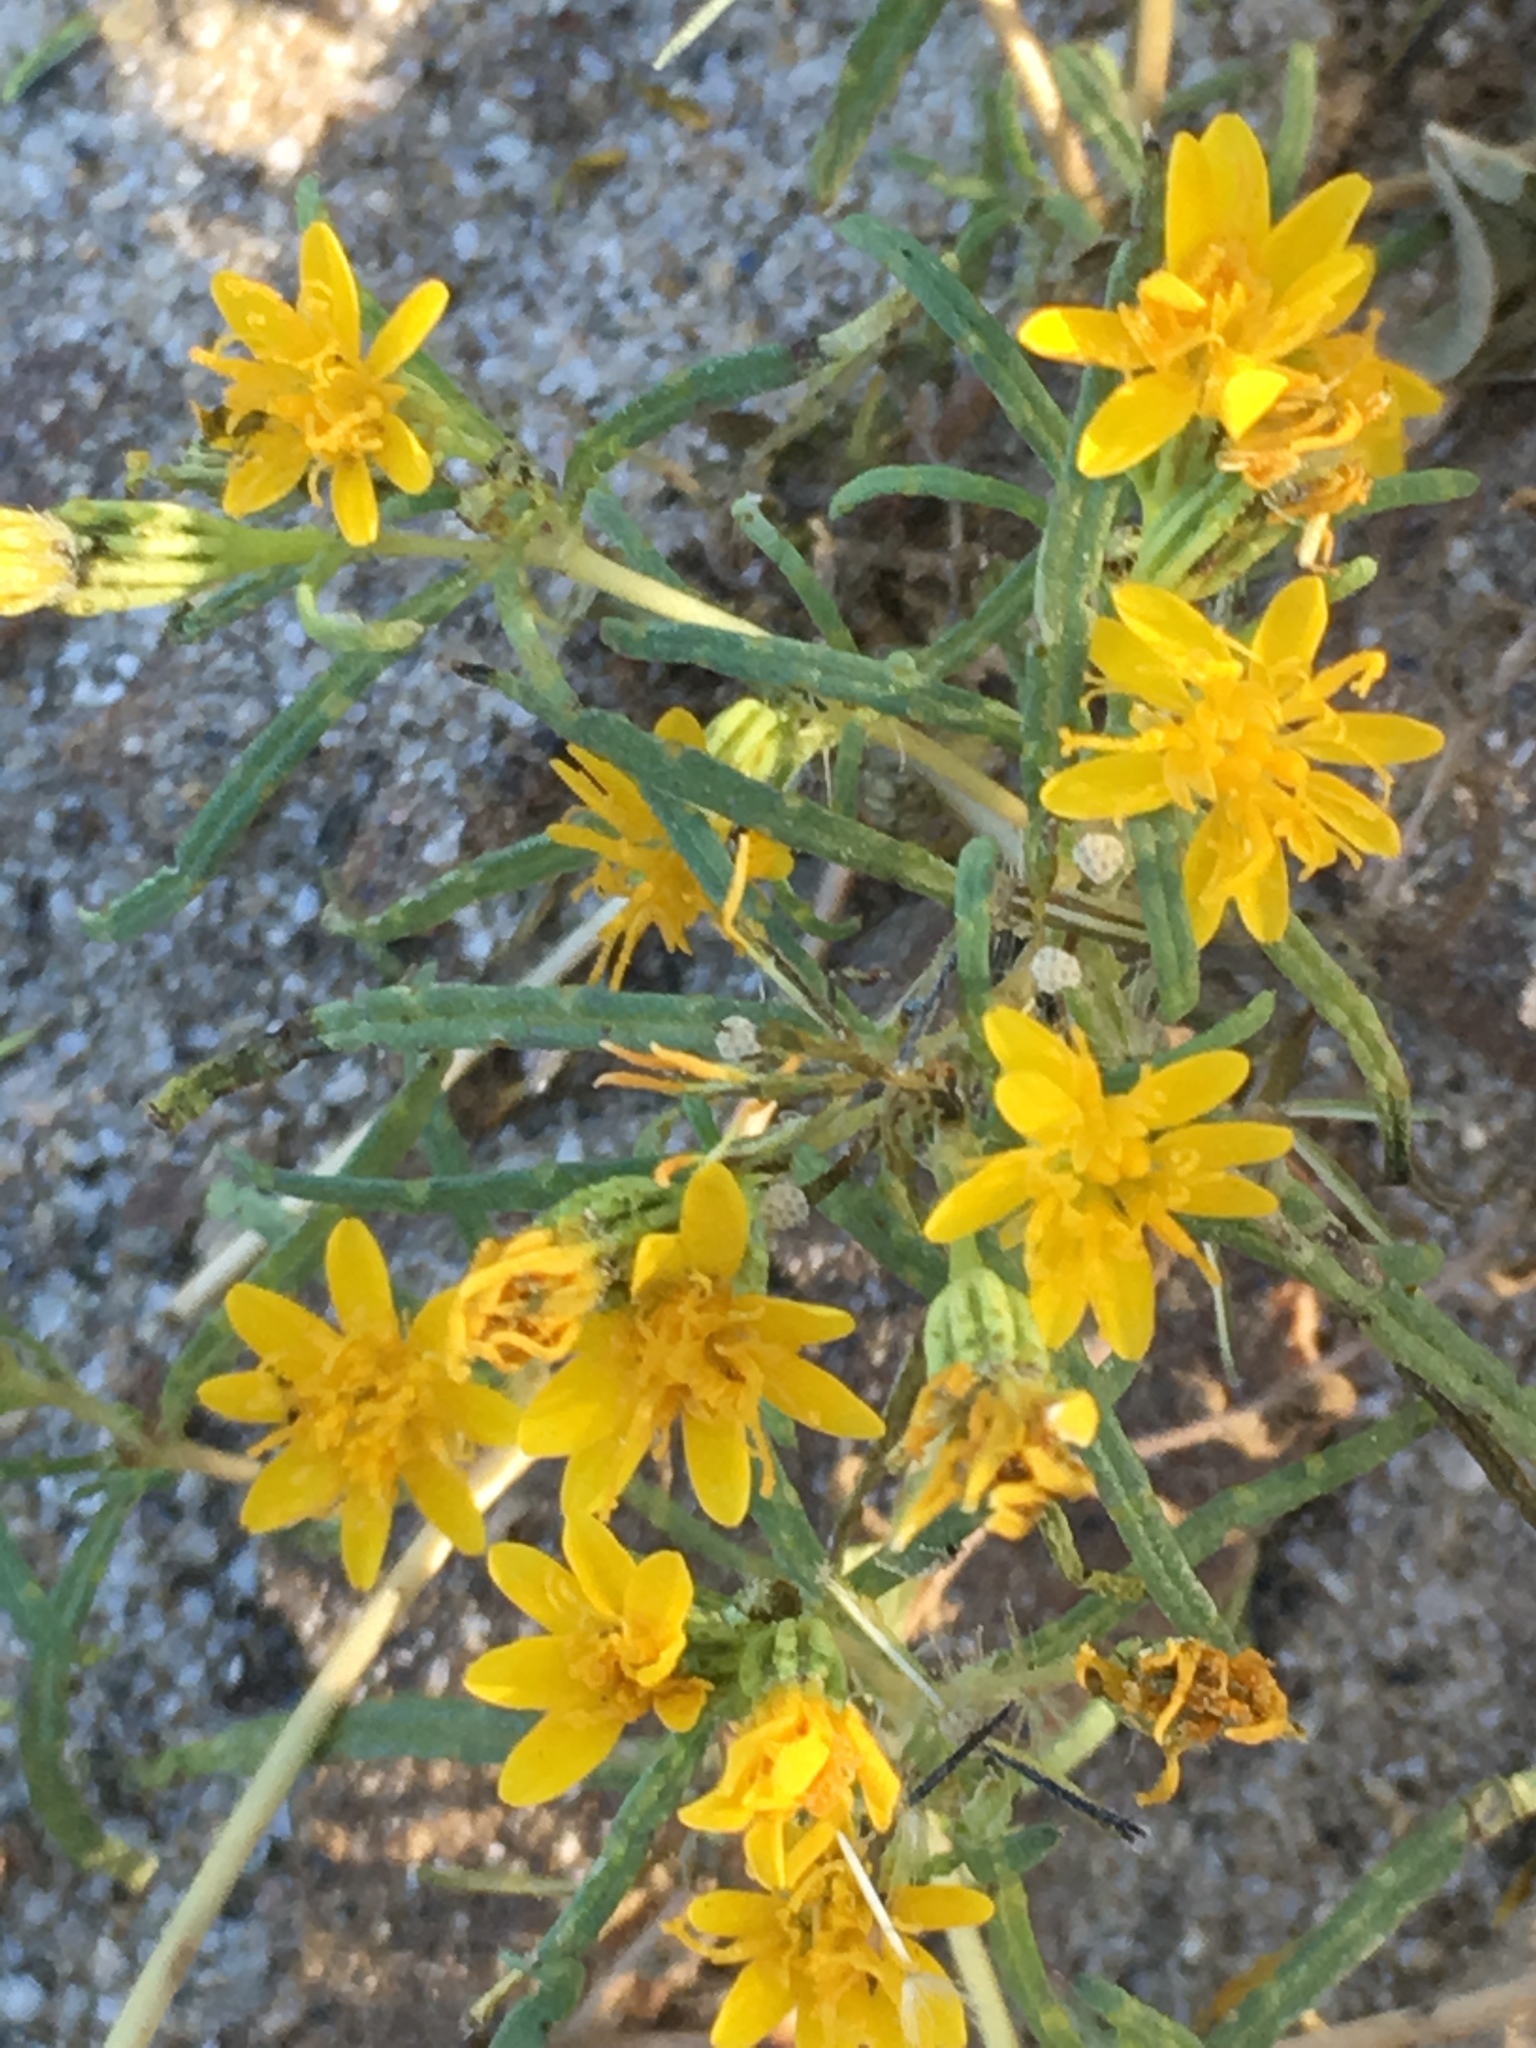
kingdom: Plantae
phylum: Tracheophyta
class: Magnoliopsida
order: Asterales
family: Asteraceae
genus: Pectis
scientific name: Pectis papposa
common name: Many-bristle chinchweed
